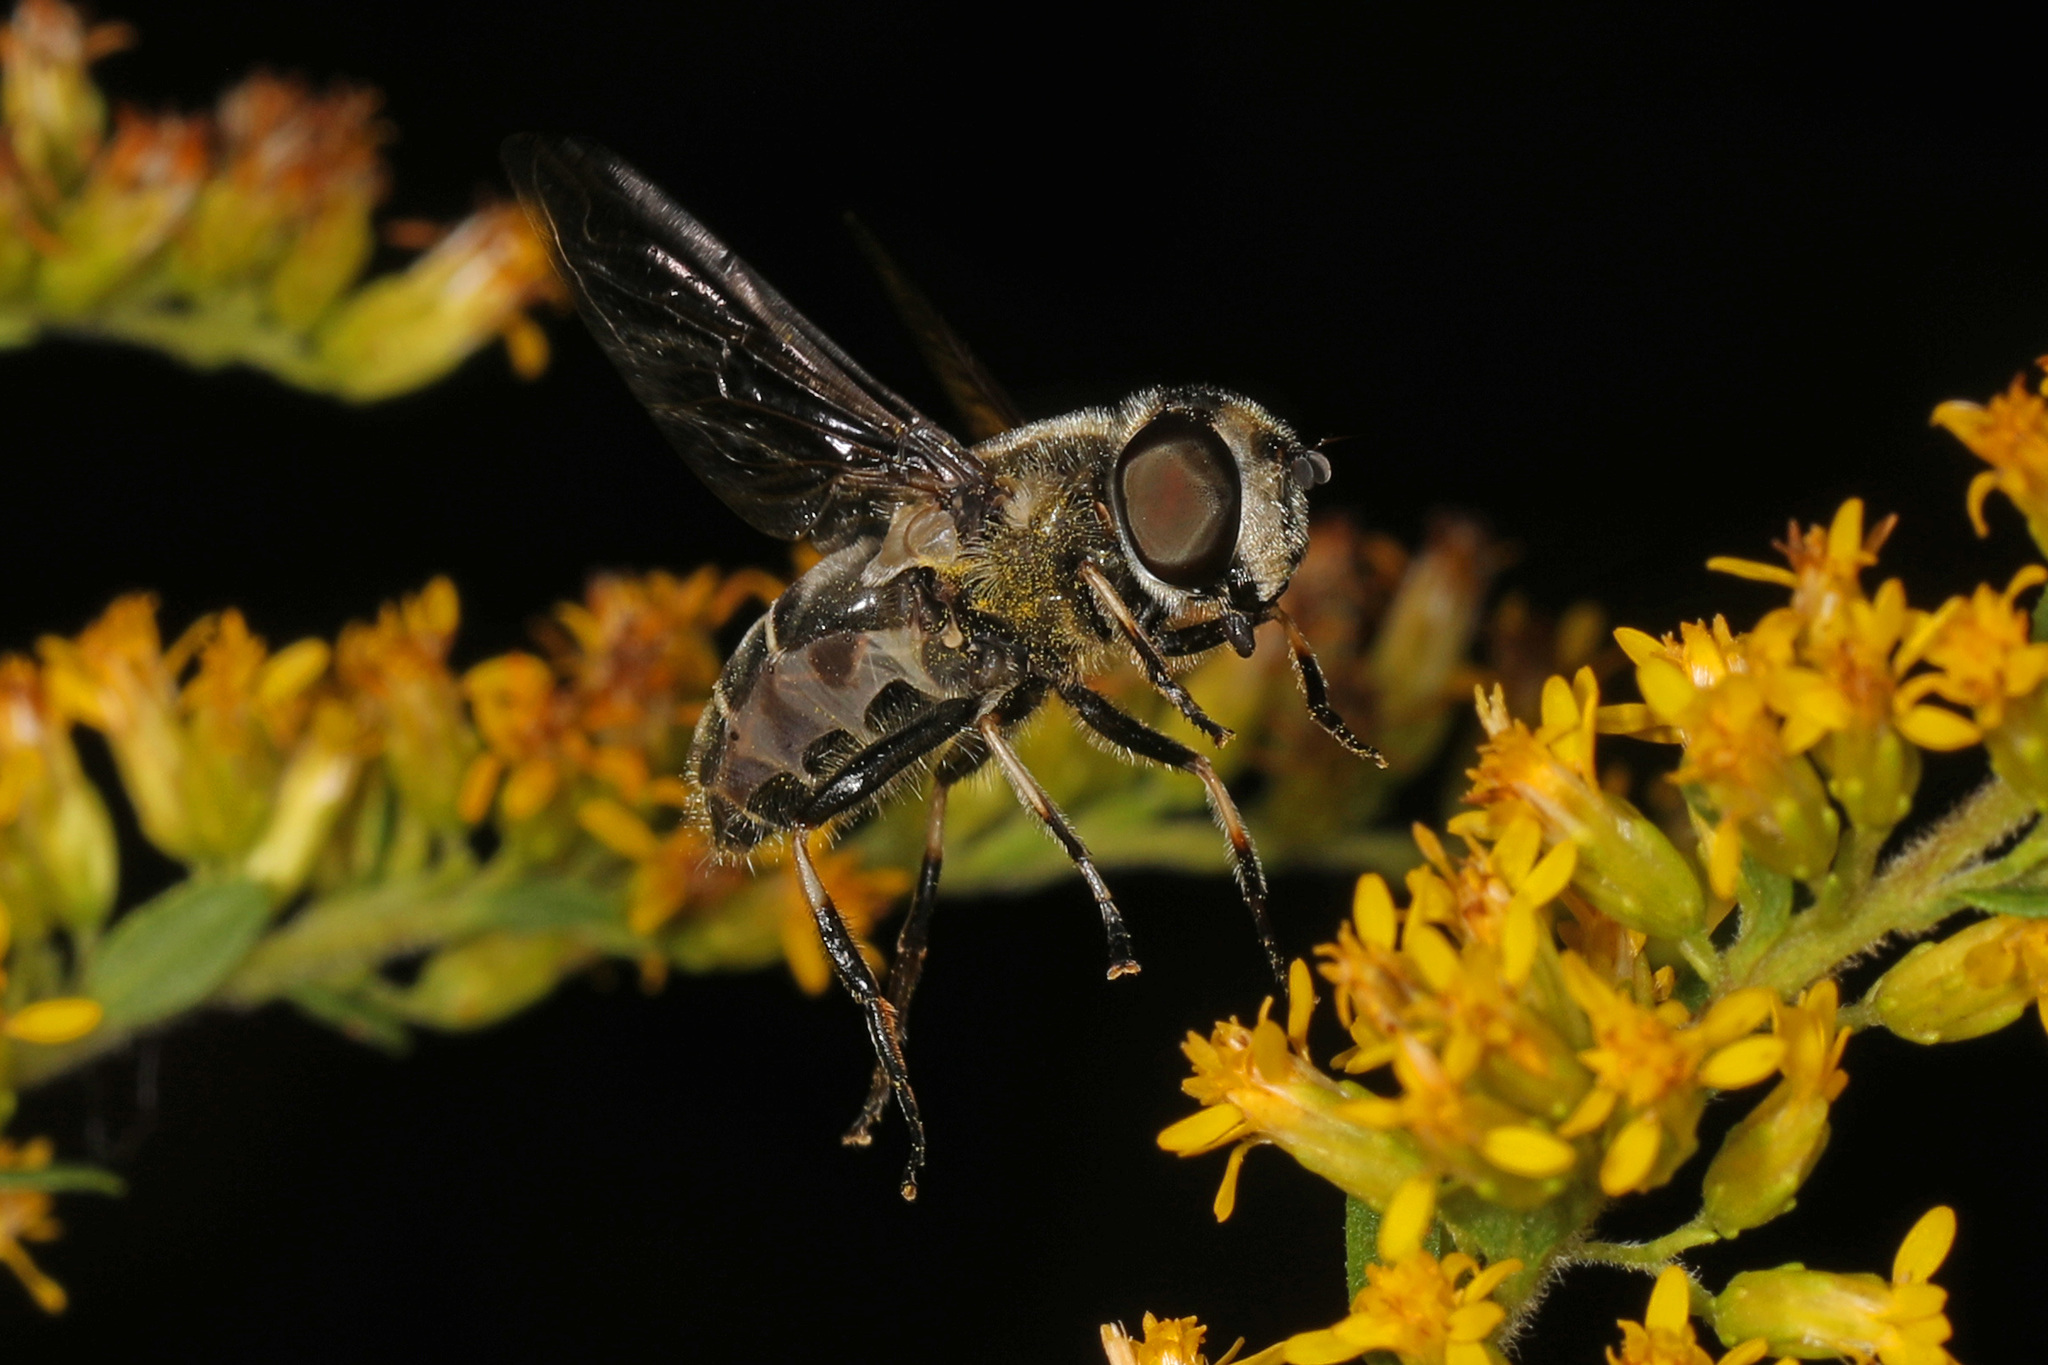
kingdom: Animalia
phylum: Arthropoda
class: Insecta
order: Diptera
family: Syrphidae
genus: Eristalis
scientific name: Eristalis dimidiata
